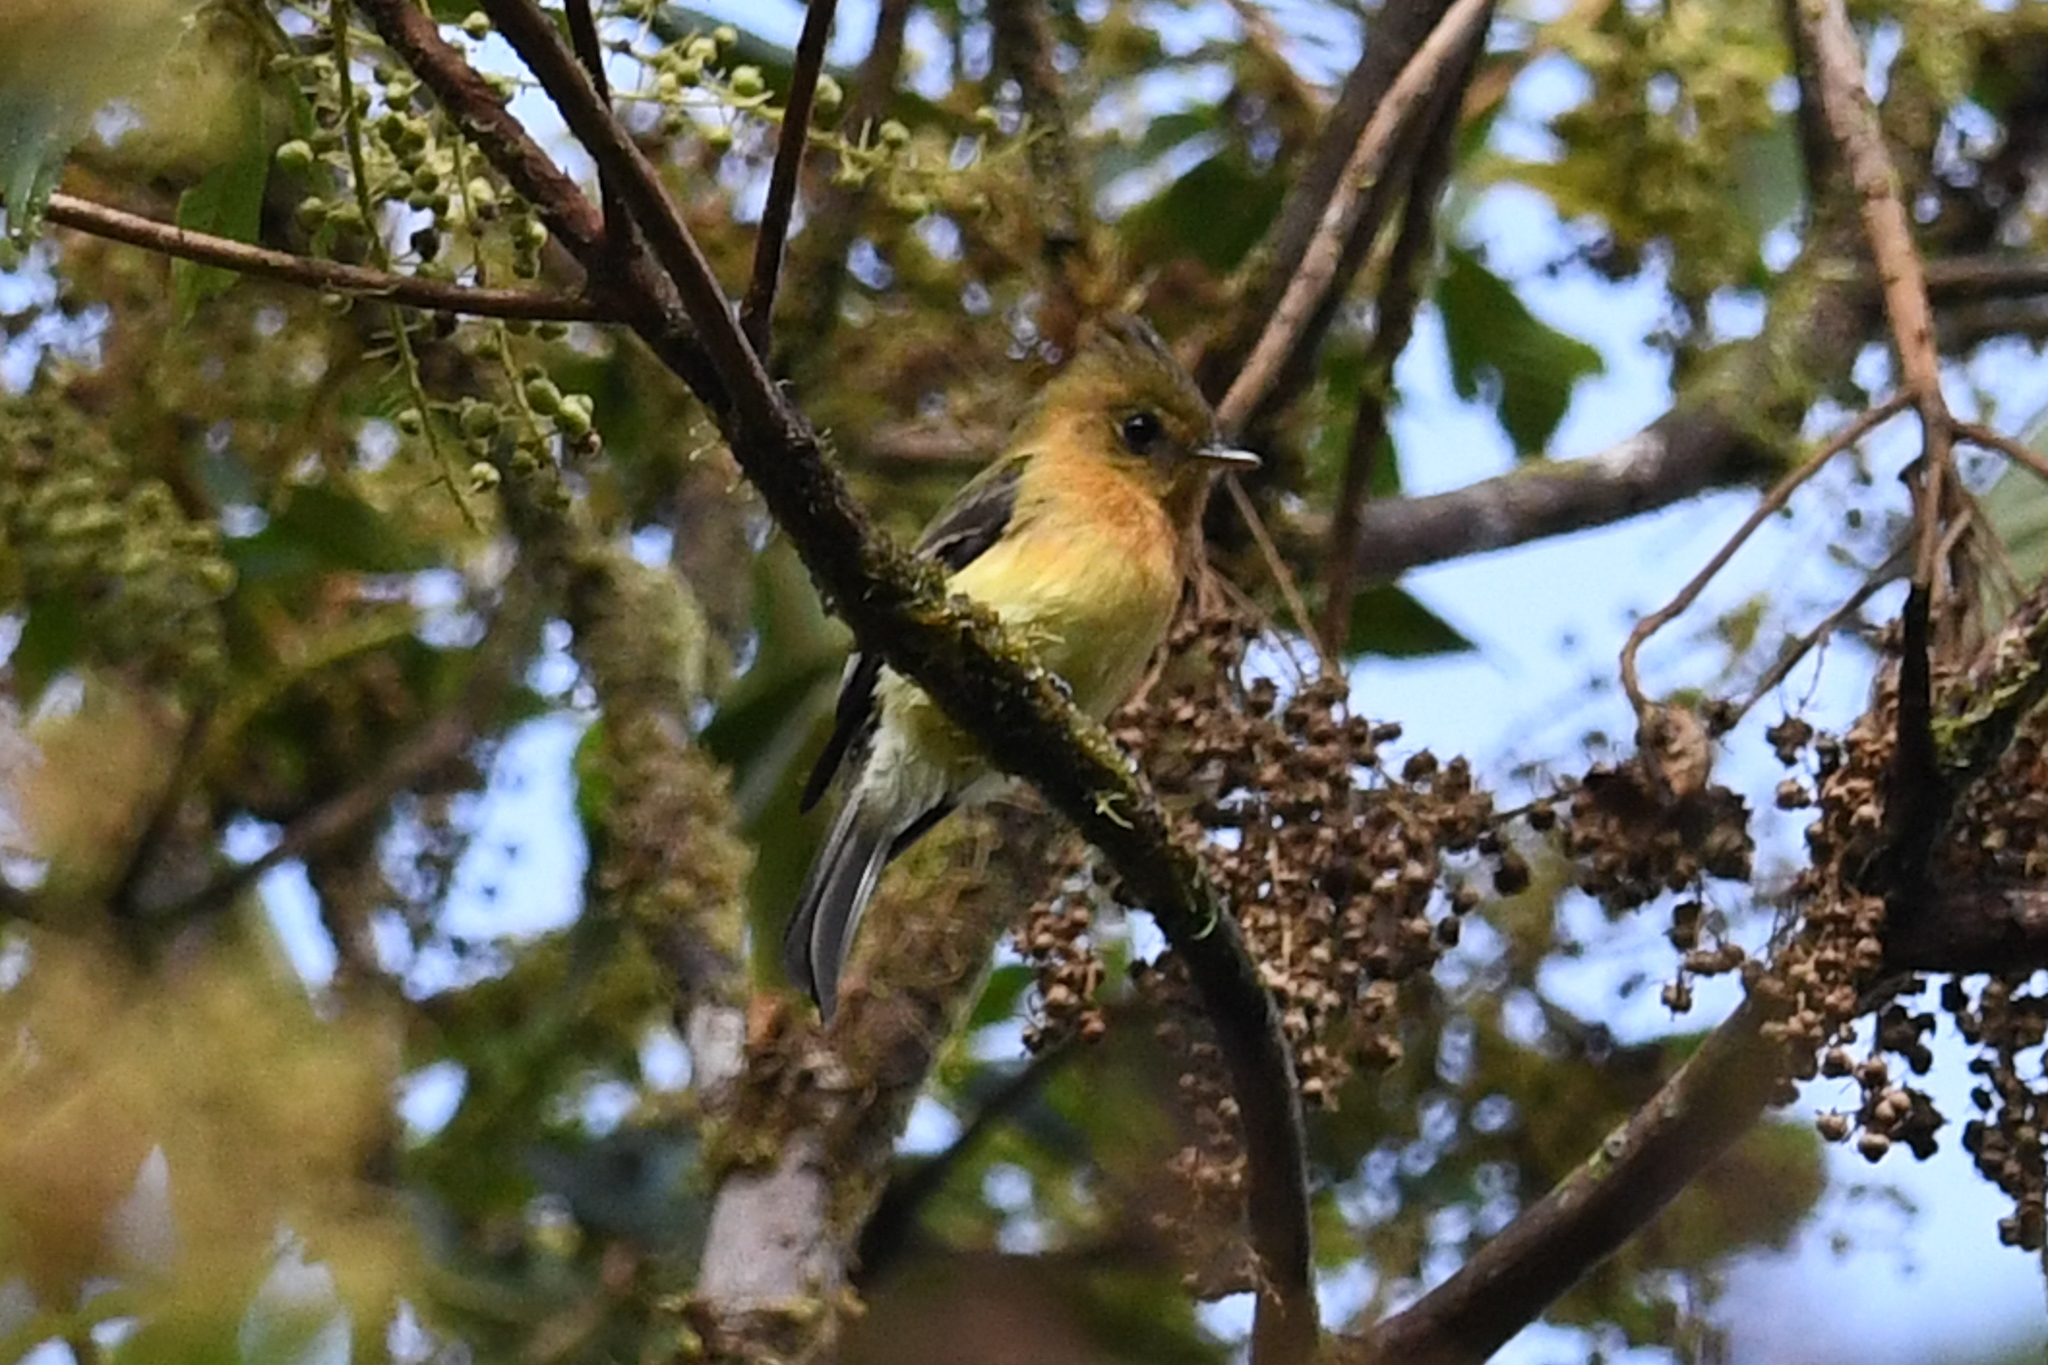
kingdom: Animalia
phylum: Chordata
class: Aves
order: Passeriformes
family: Tyrannidae
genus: Mitrephanes
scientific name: Mitrephanes phaeocercus
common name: Northern tufted flycatcher
